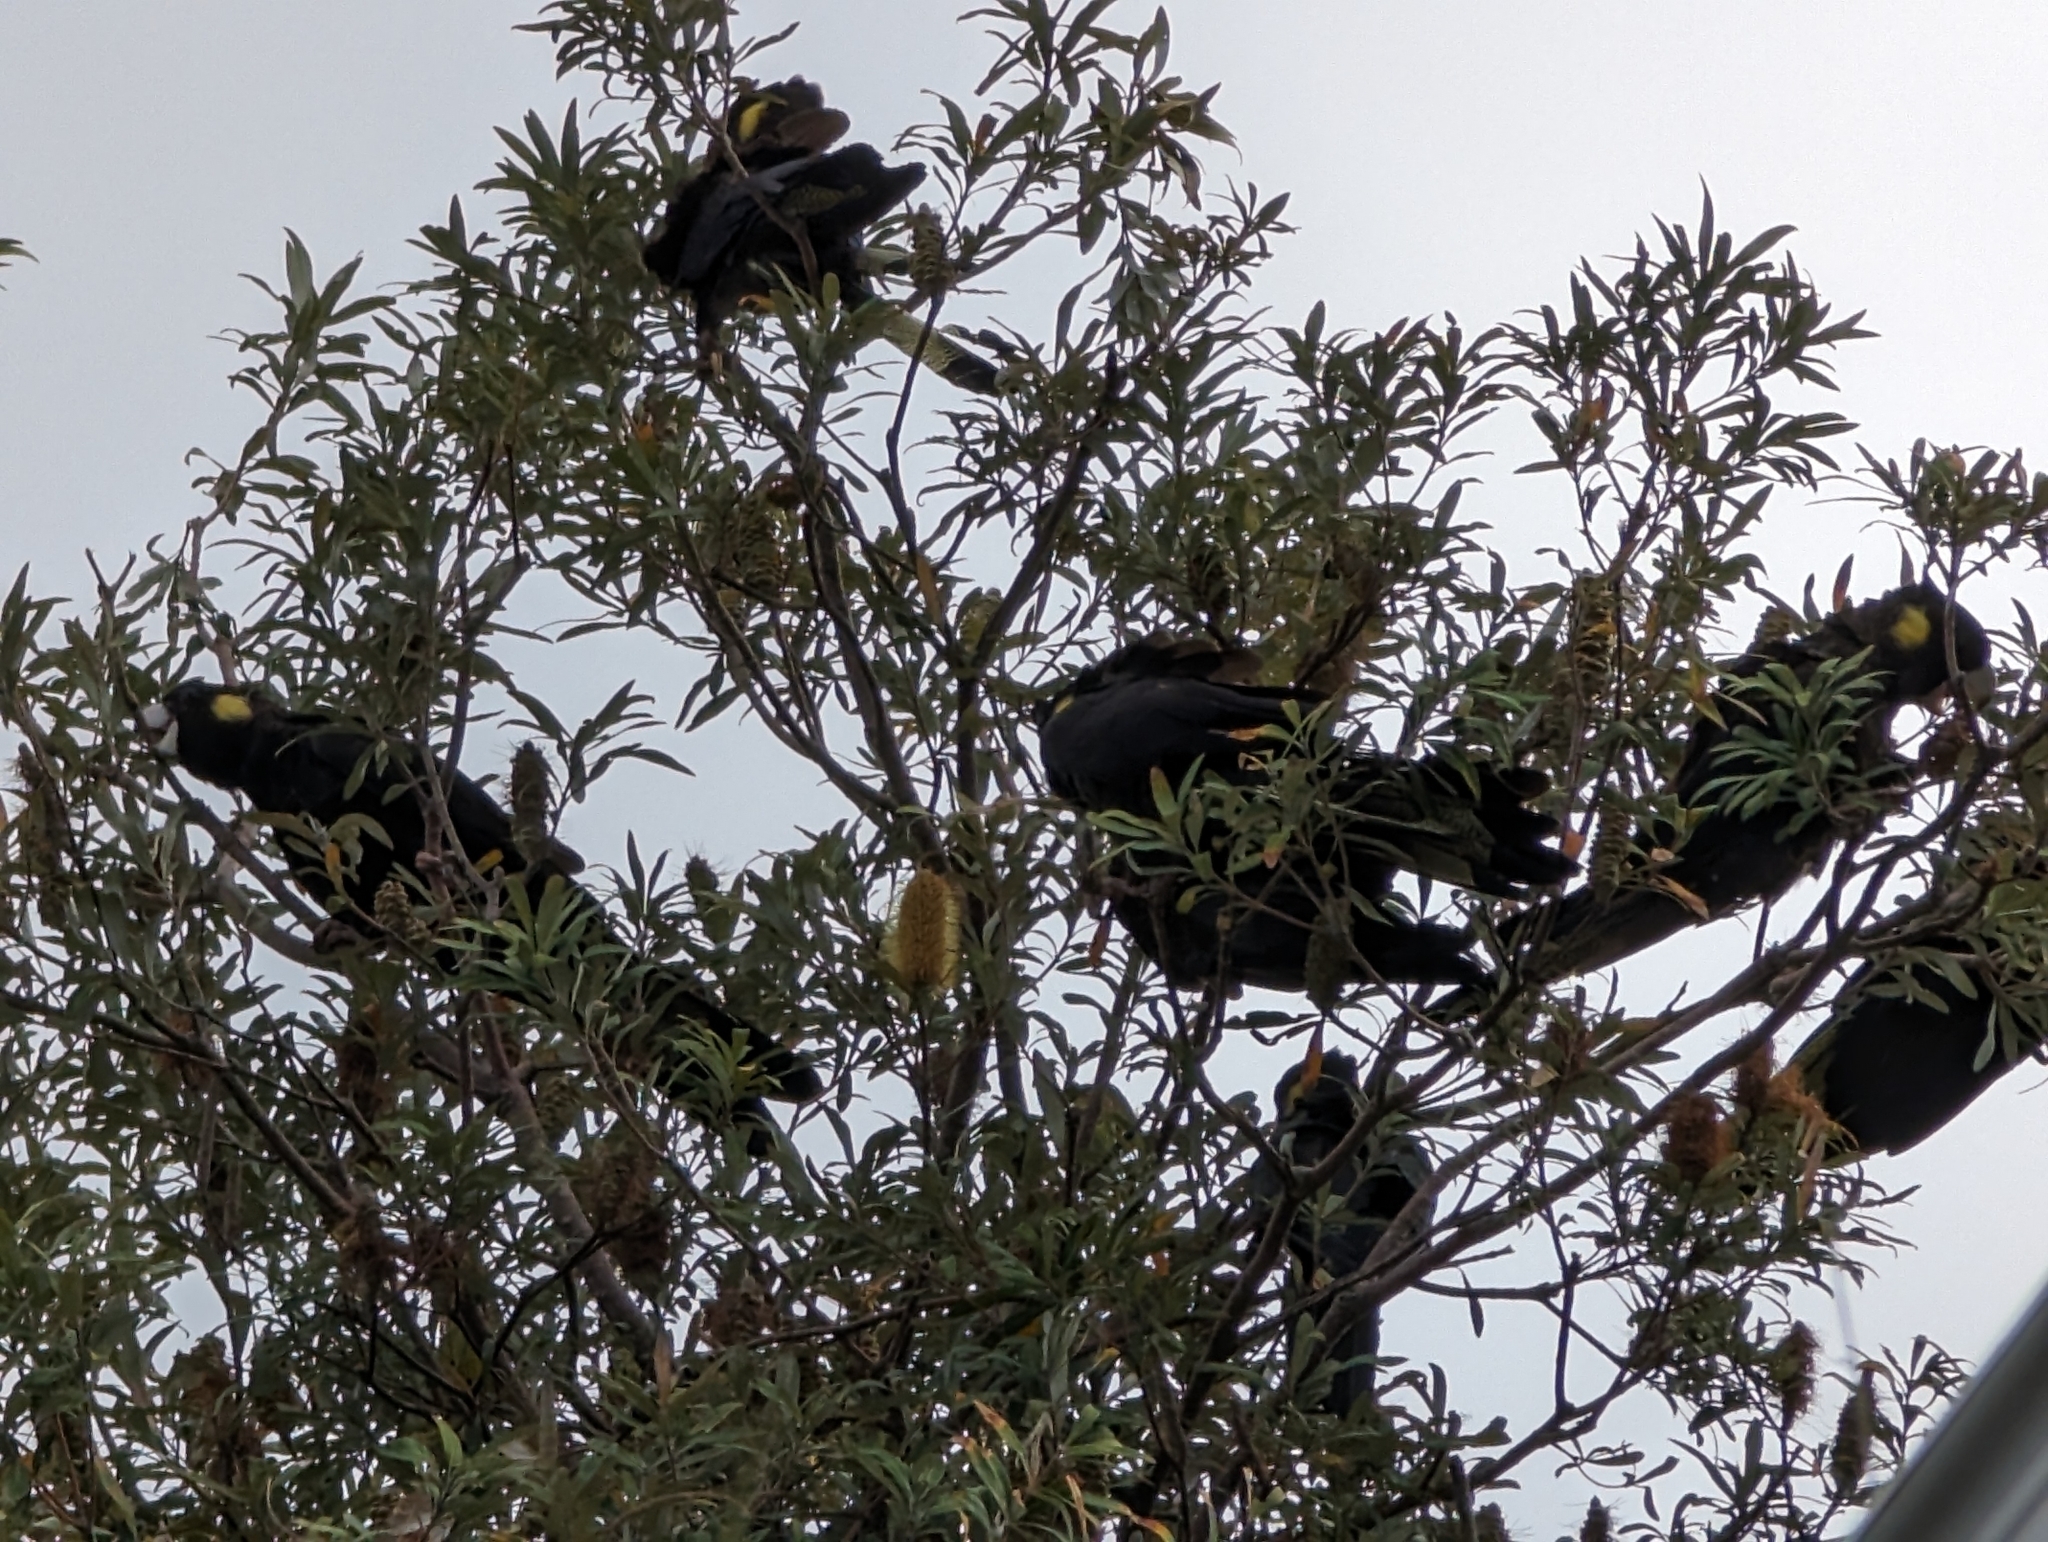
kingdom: Animalia
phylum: Chordata
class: Aves
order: Psittaciformes
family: Cacatuidae
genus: Zanda
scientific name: Zanda funerea
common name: Yellow-tailed black-cockatoo
